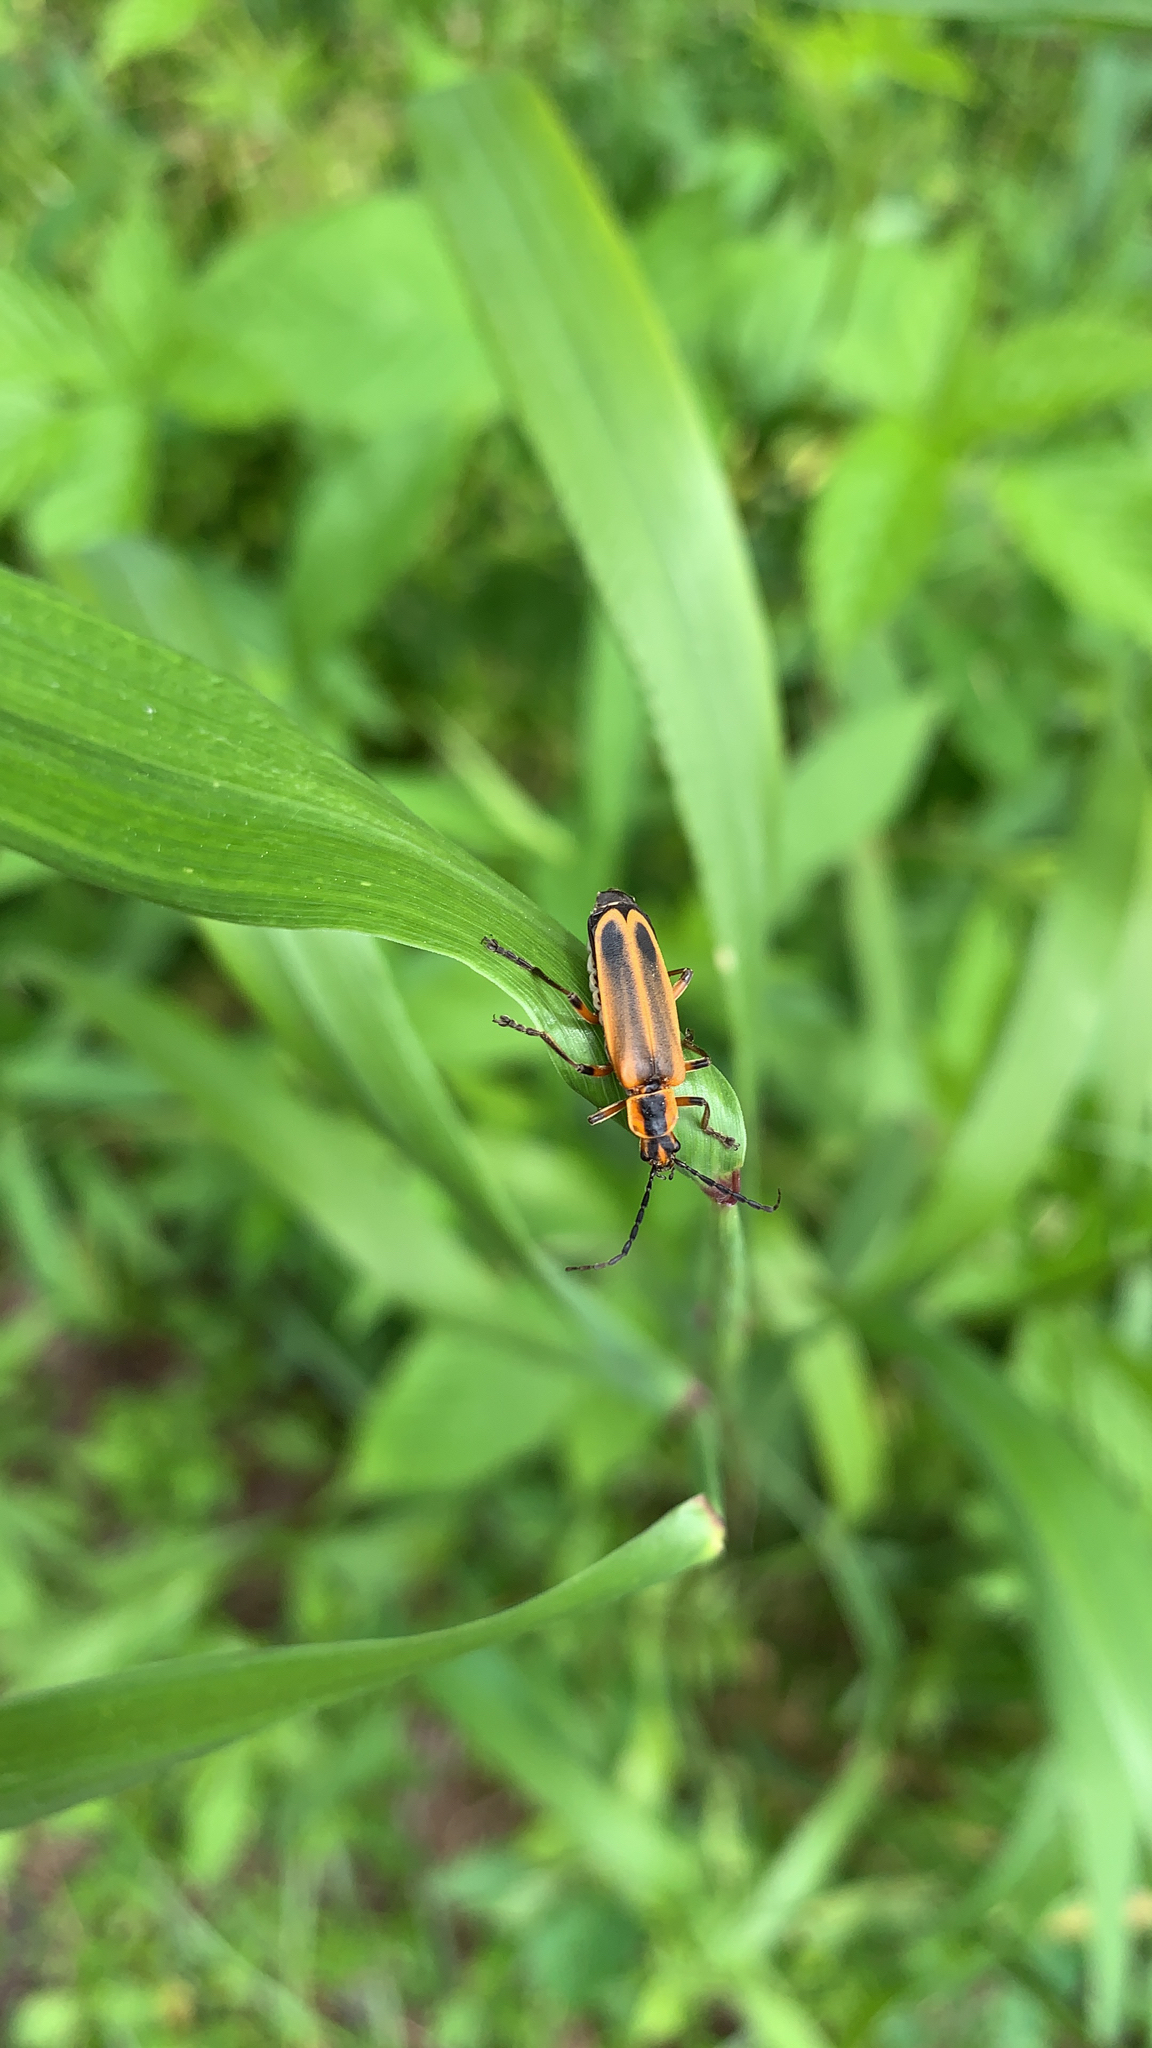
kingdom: Animalia
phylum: Arthropoda
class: Insecta
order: Coleoptera
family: Cantharidae
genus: Chauliognathus
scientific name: Chauliognathus marginatus
